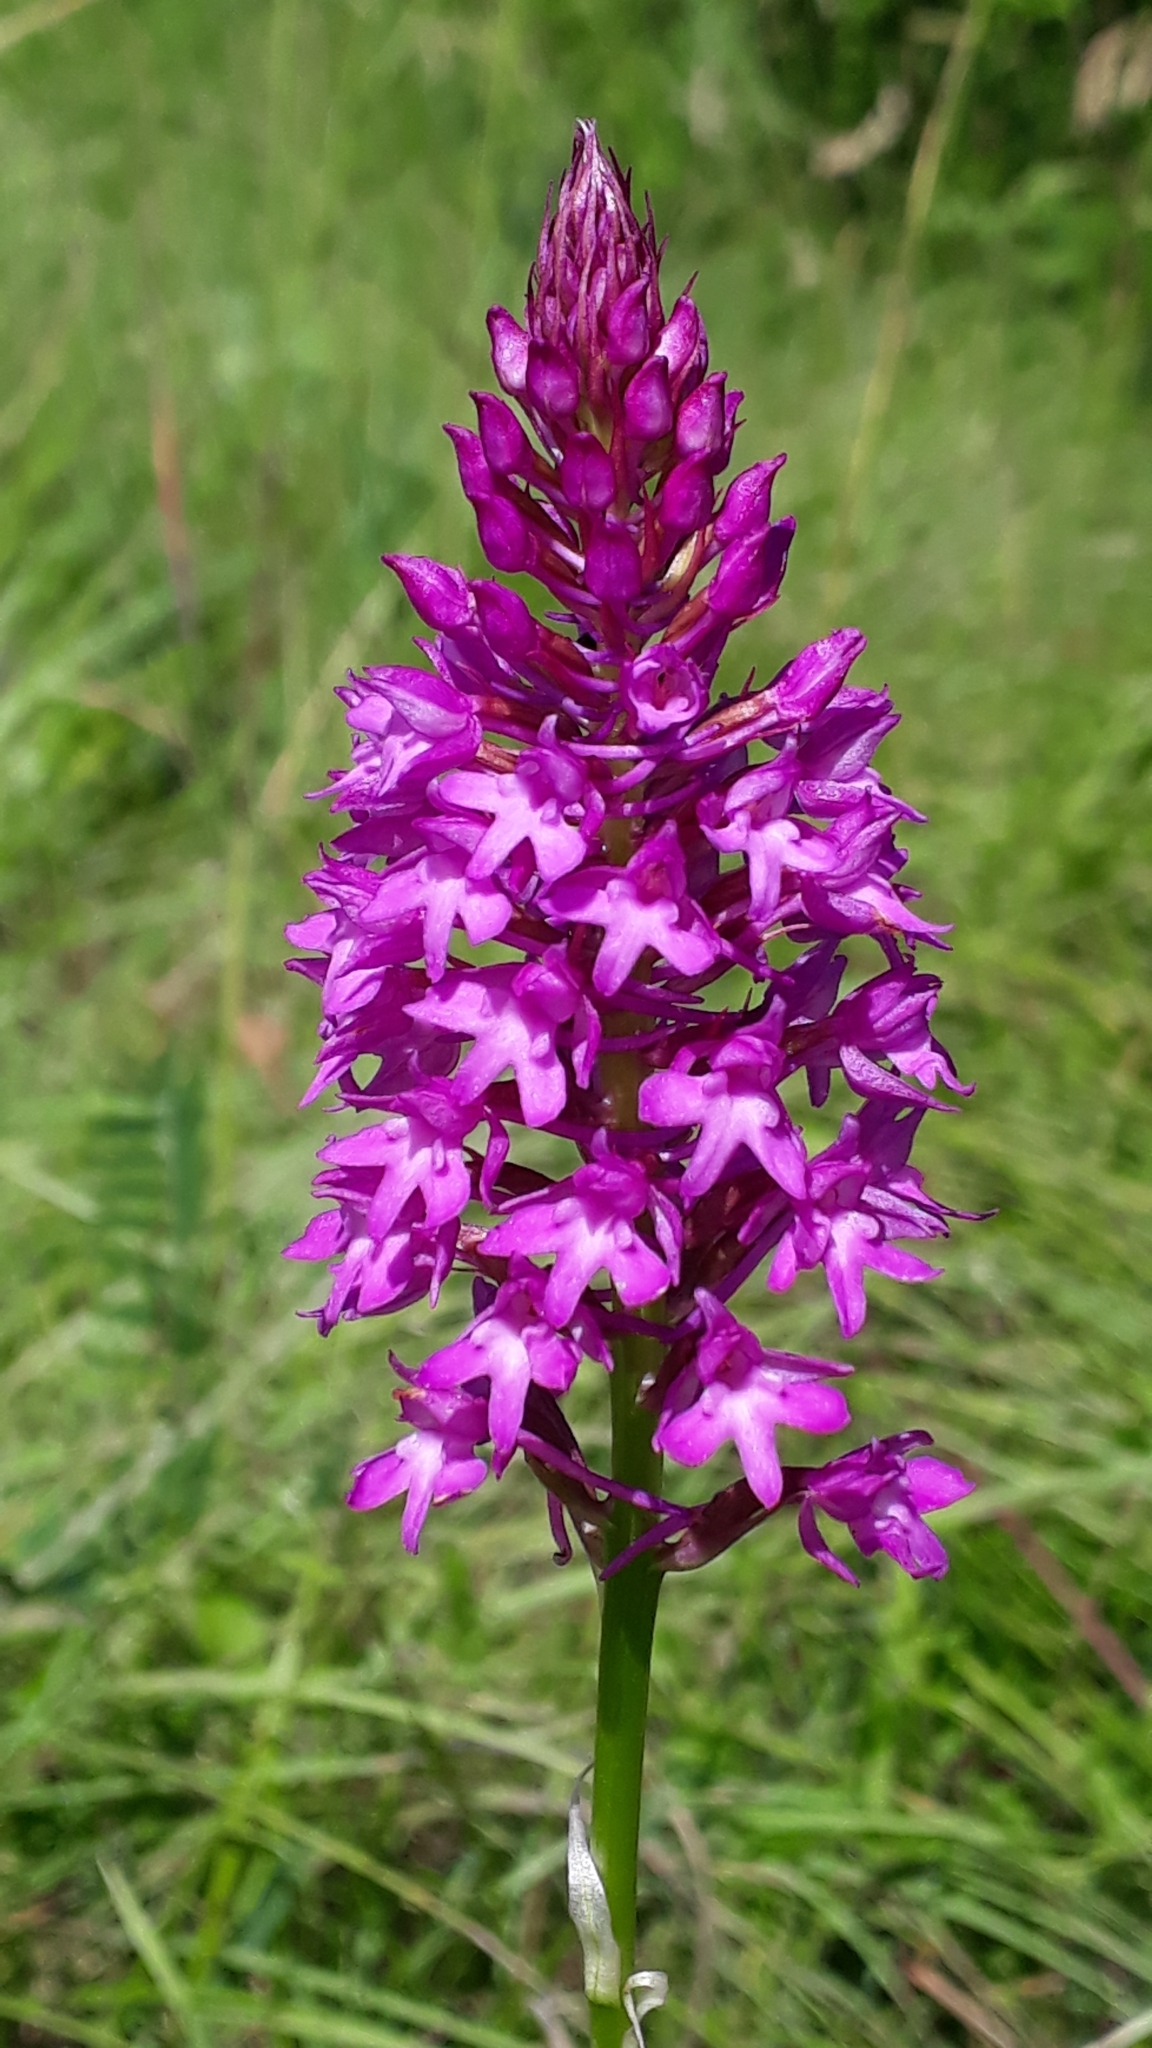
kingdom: Plantae
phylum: Tracheophyta
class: Liliopsida
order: Asparagales
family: Orchidaceae
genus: Anacamptis
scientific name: Anacamptis pyramidalis
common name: Pyramidal orchid
